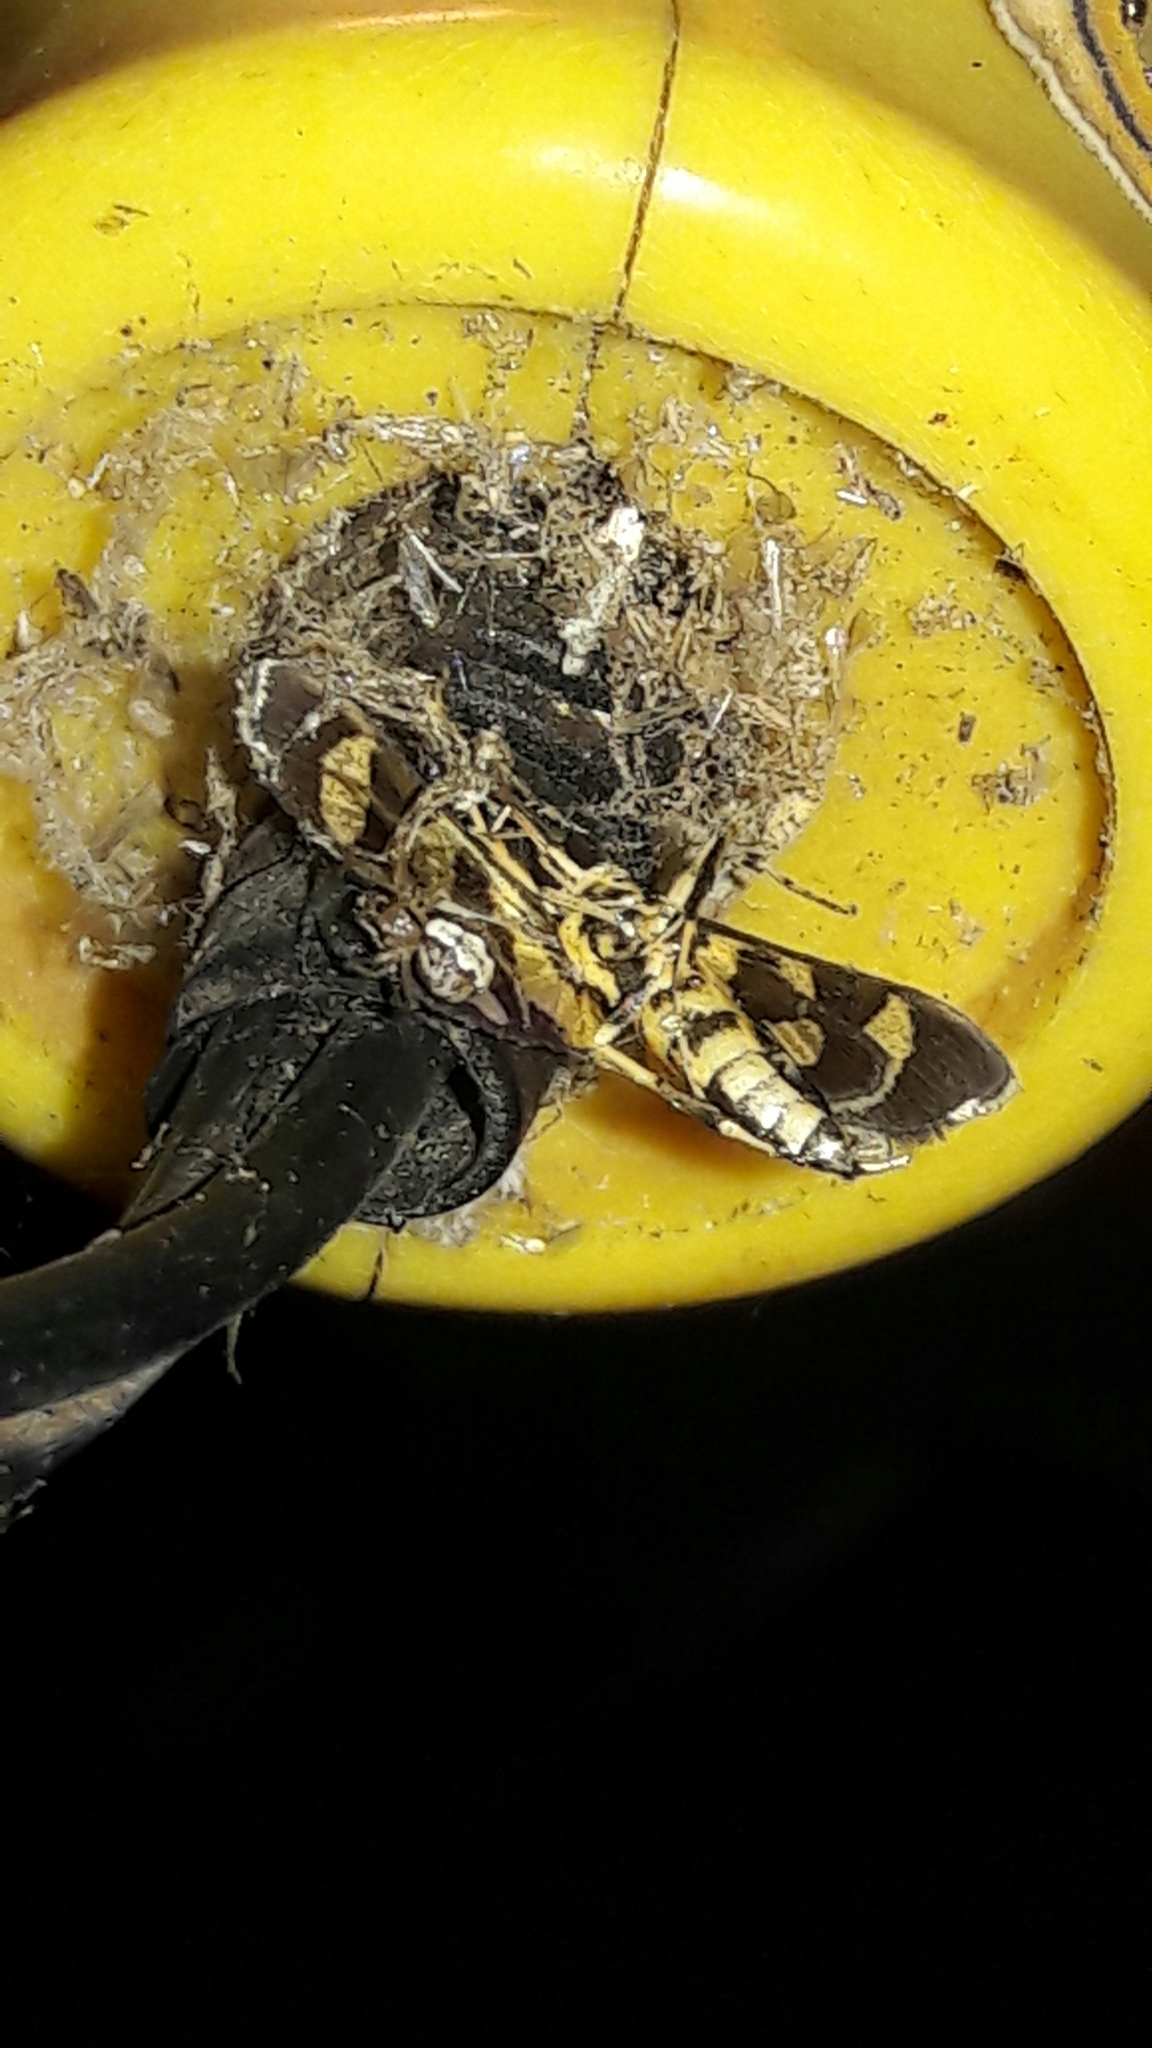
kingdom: Animalia
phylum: Arthropoda
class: Insecta
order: Lepidoptera
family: Crambidae
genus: Syngamia
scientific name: Syngamia florella
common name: Orange-spotted flower moth
